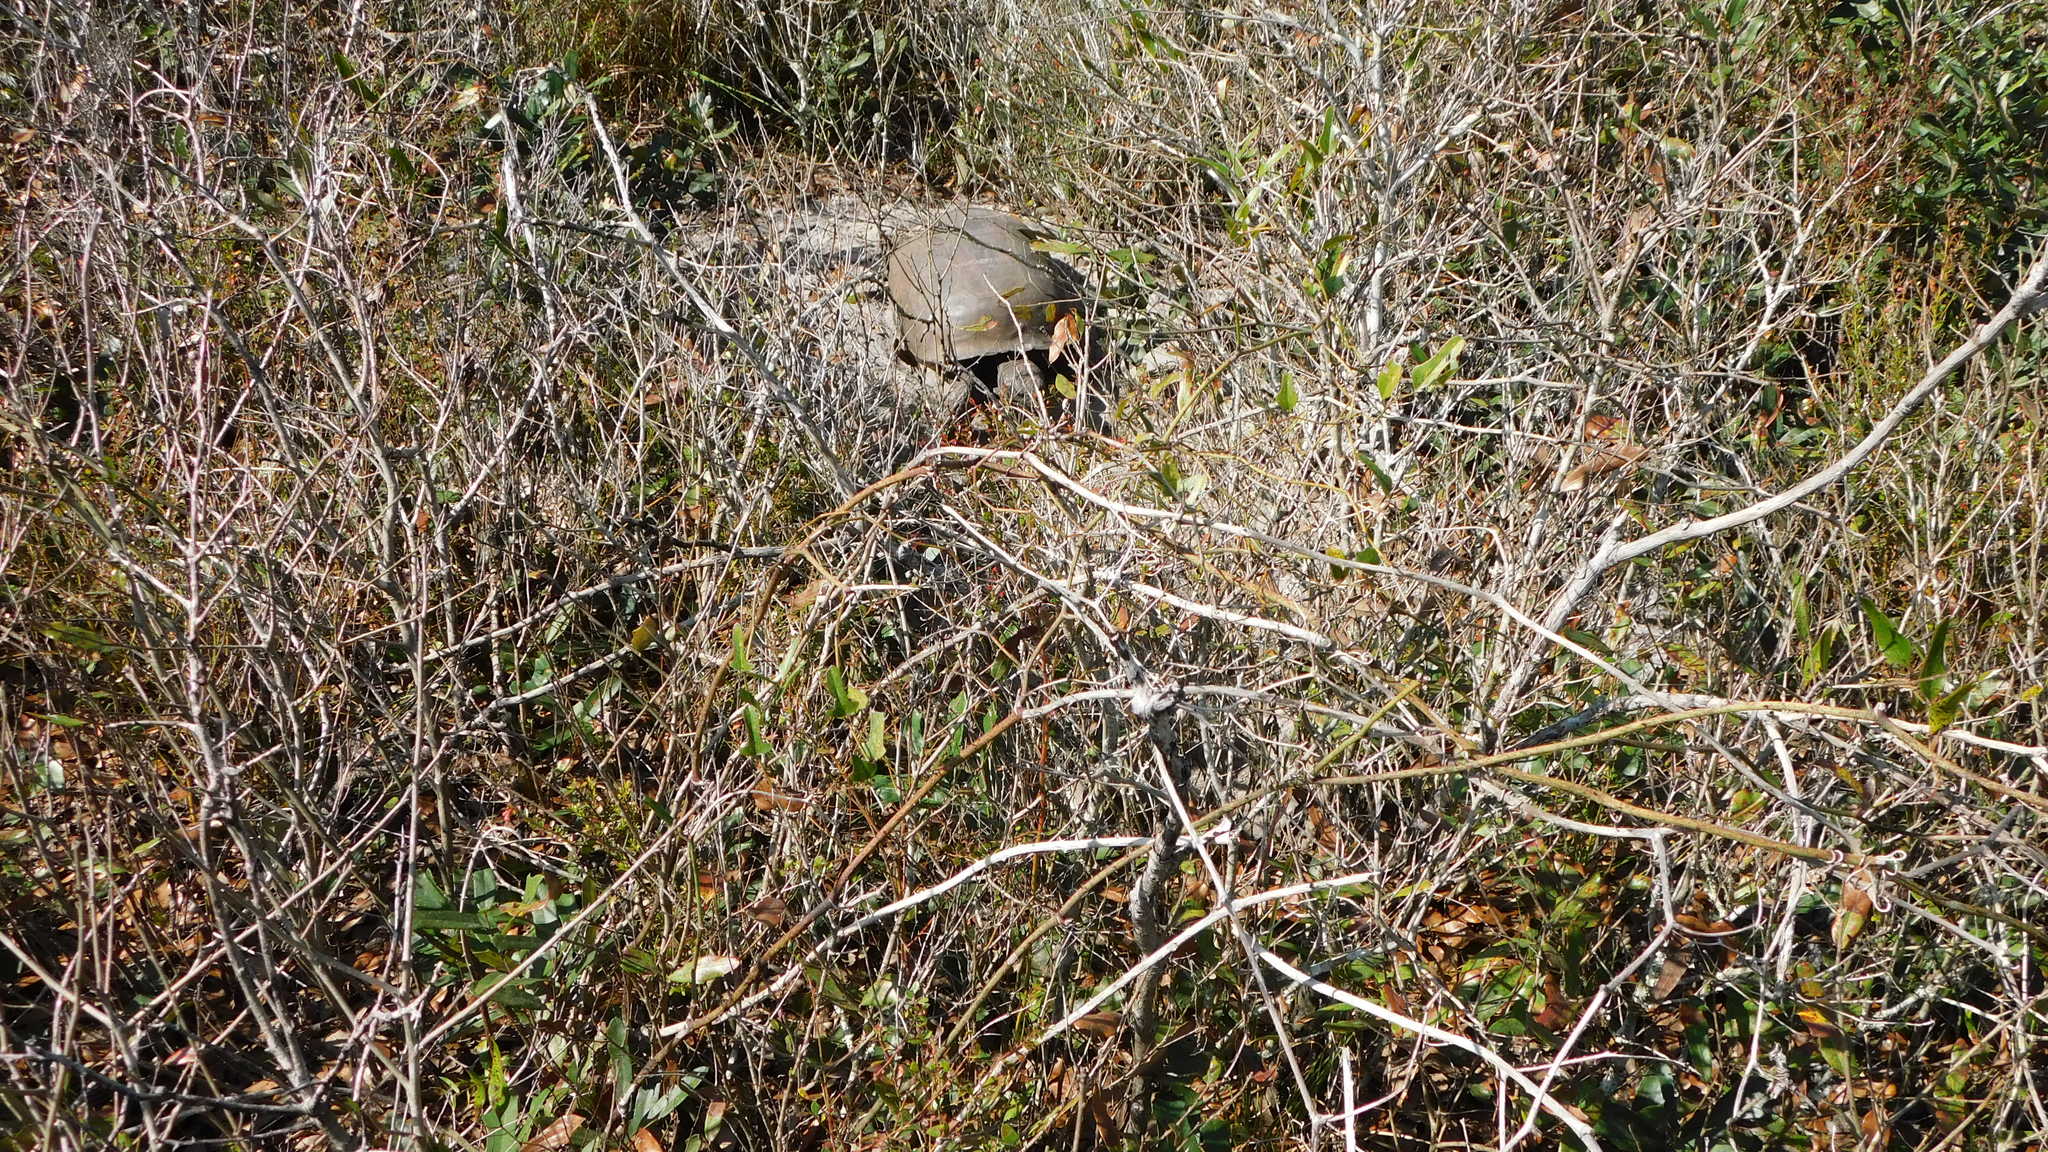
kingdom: Animalia
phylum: Chordata
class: Testudines
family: Testudinidae
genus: Gopherus
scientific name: Gopherus polyphemus
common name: Florida gopher tortoise
